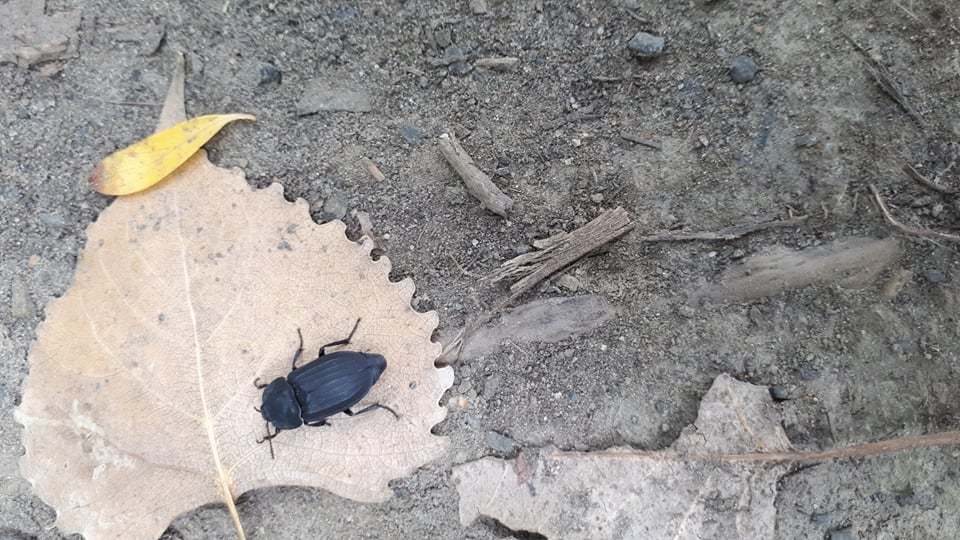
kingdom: Animalia
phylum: Arthropoda
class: Insecta
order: Coleoptera
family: Staphylinidae
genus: Silpha
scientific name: Silpha tristis
